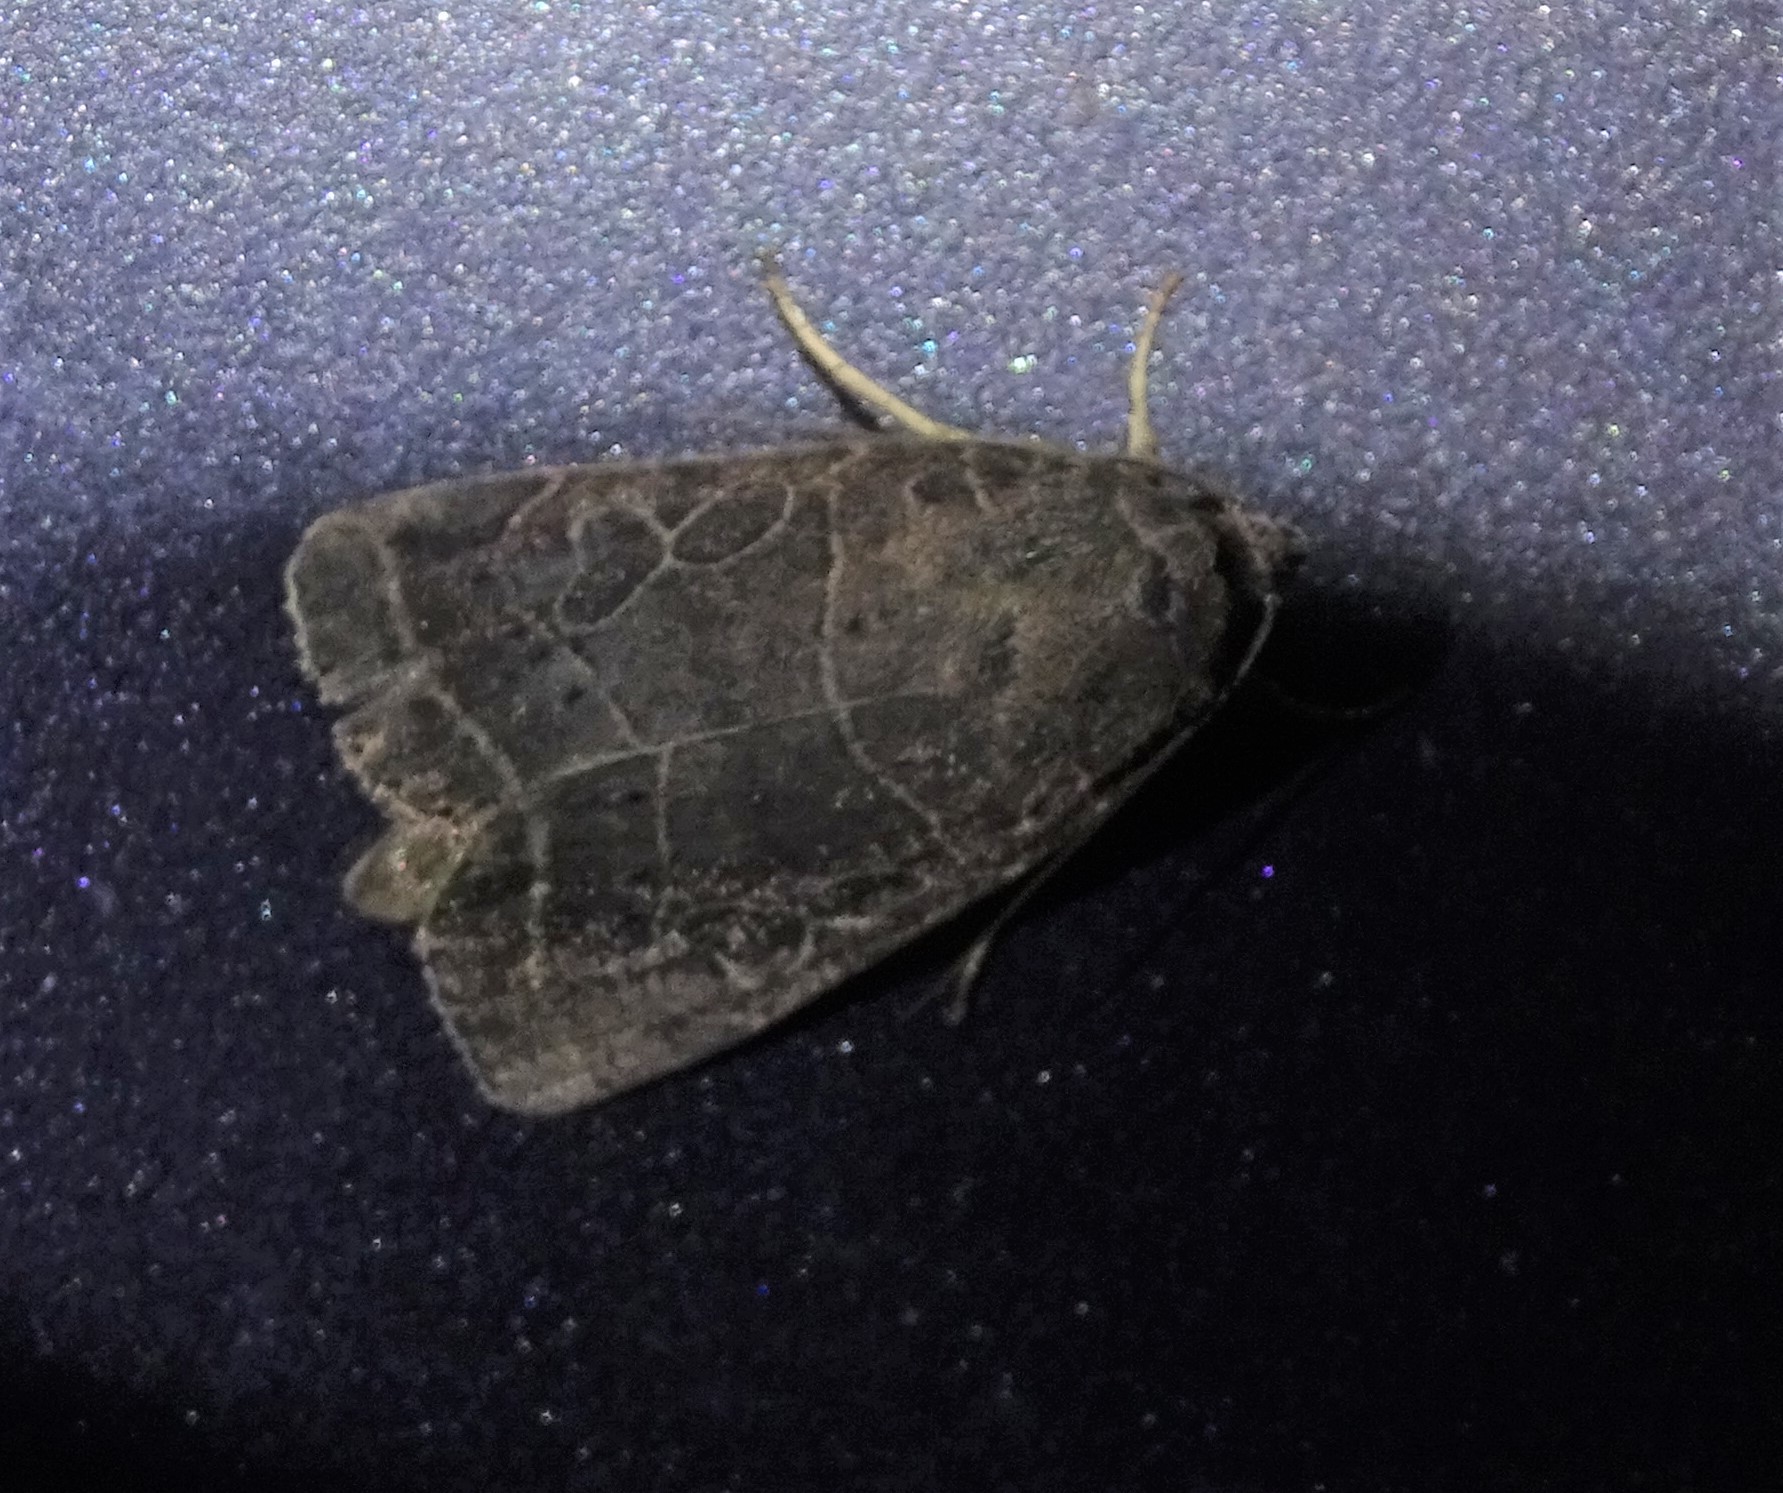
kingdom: Animalia
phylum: Arthropoda
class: Insecta
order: Lepidoptera
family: Noctuidae
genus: Orthodes
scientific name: Orthodes majuscula
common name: Rustic quaker
